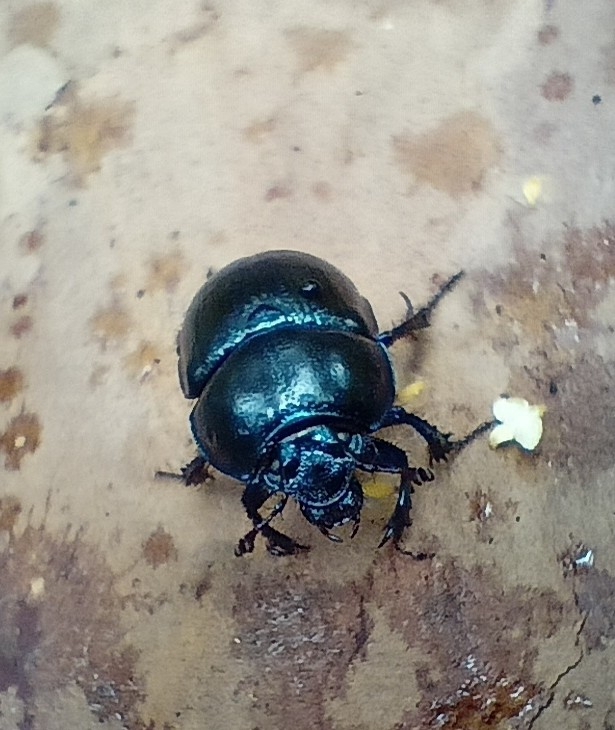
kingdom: Animalia
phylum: Arthropoda
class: Insecta
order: Coleoptera
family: Geotrupidae
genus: Anoplotrupes
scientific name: Anoplotrupes stercorosus
